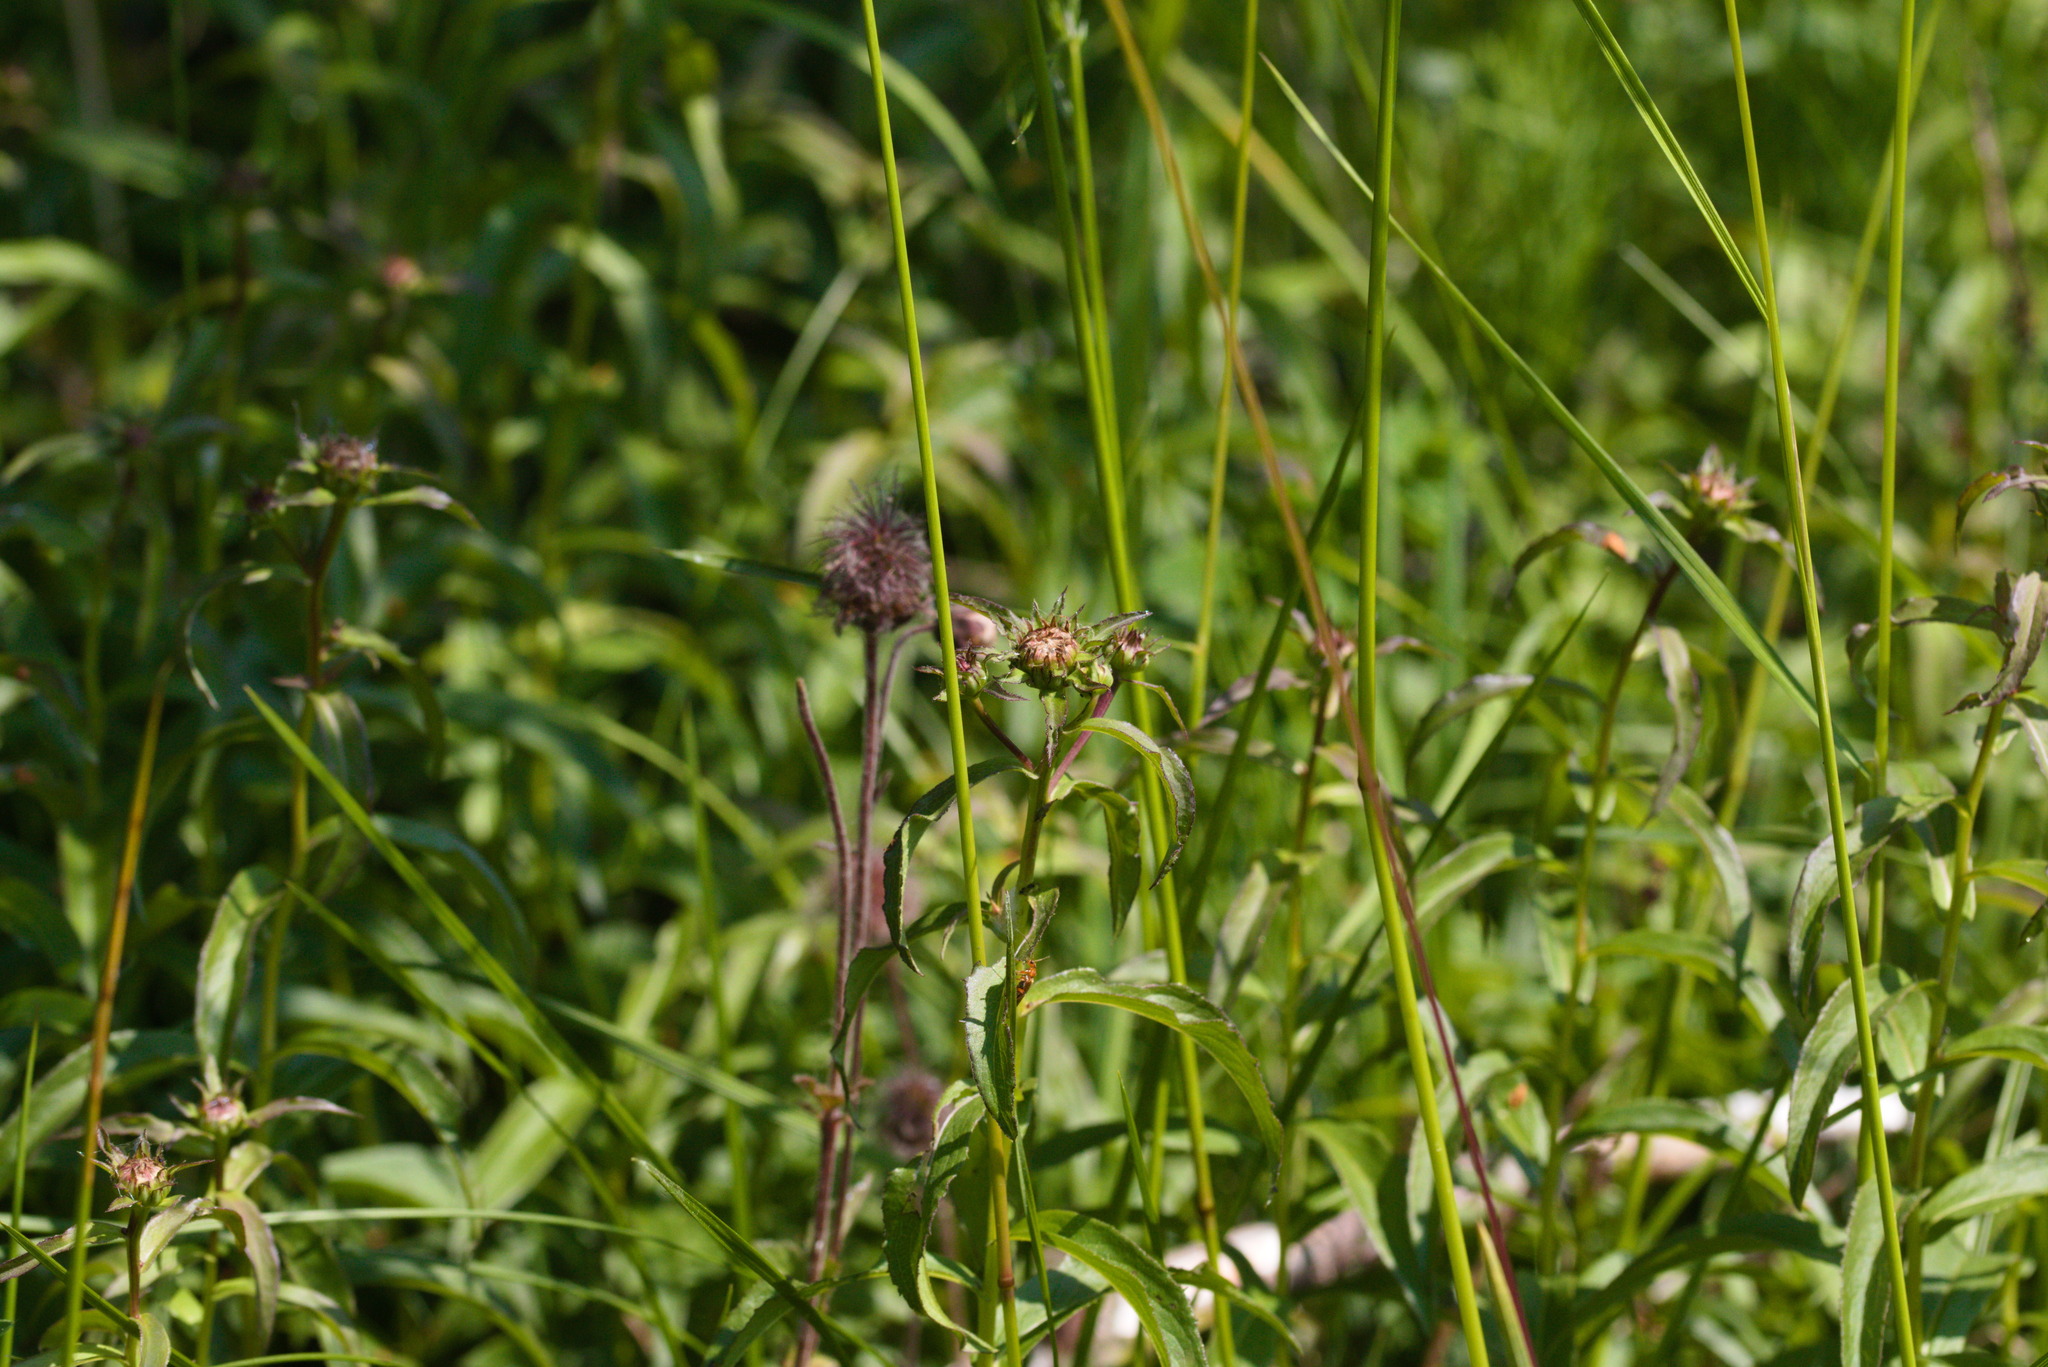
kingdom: Plantae
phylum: Tracheophyta
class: Magnoliopsida
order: Asterales
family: Asteraceae
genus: Pentanema
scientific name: Pentanema salicinum
